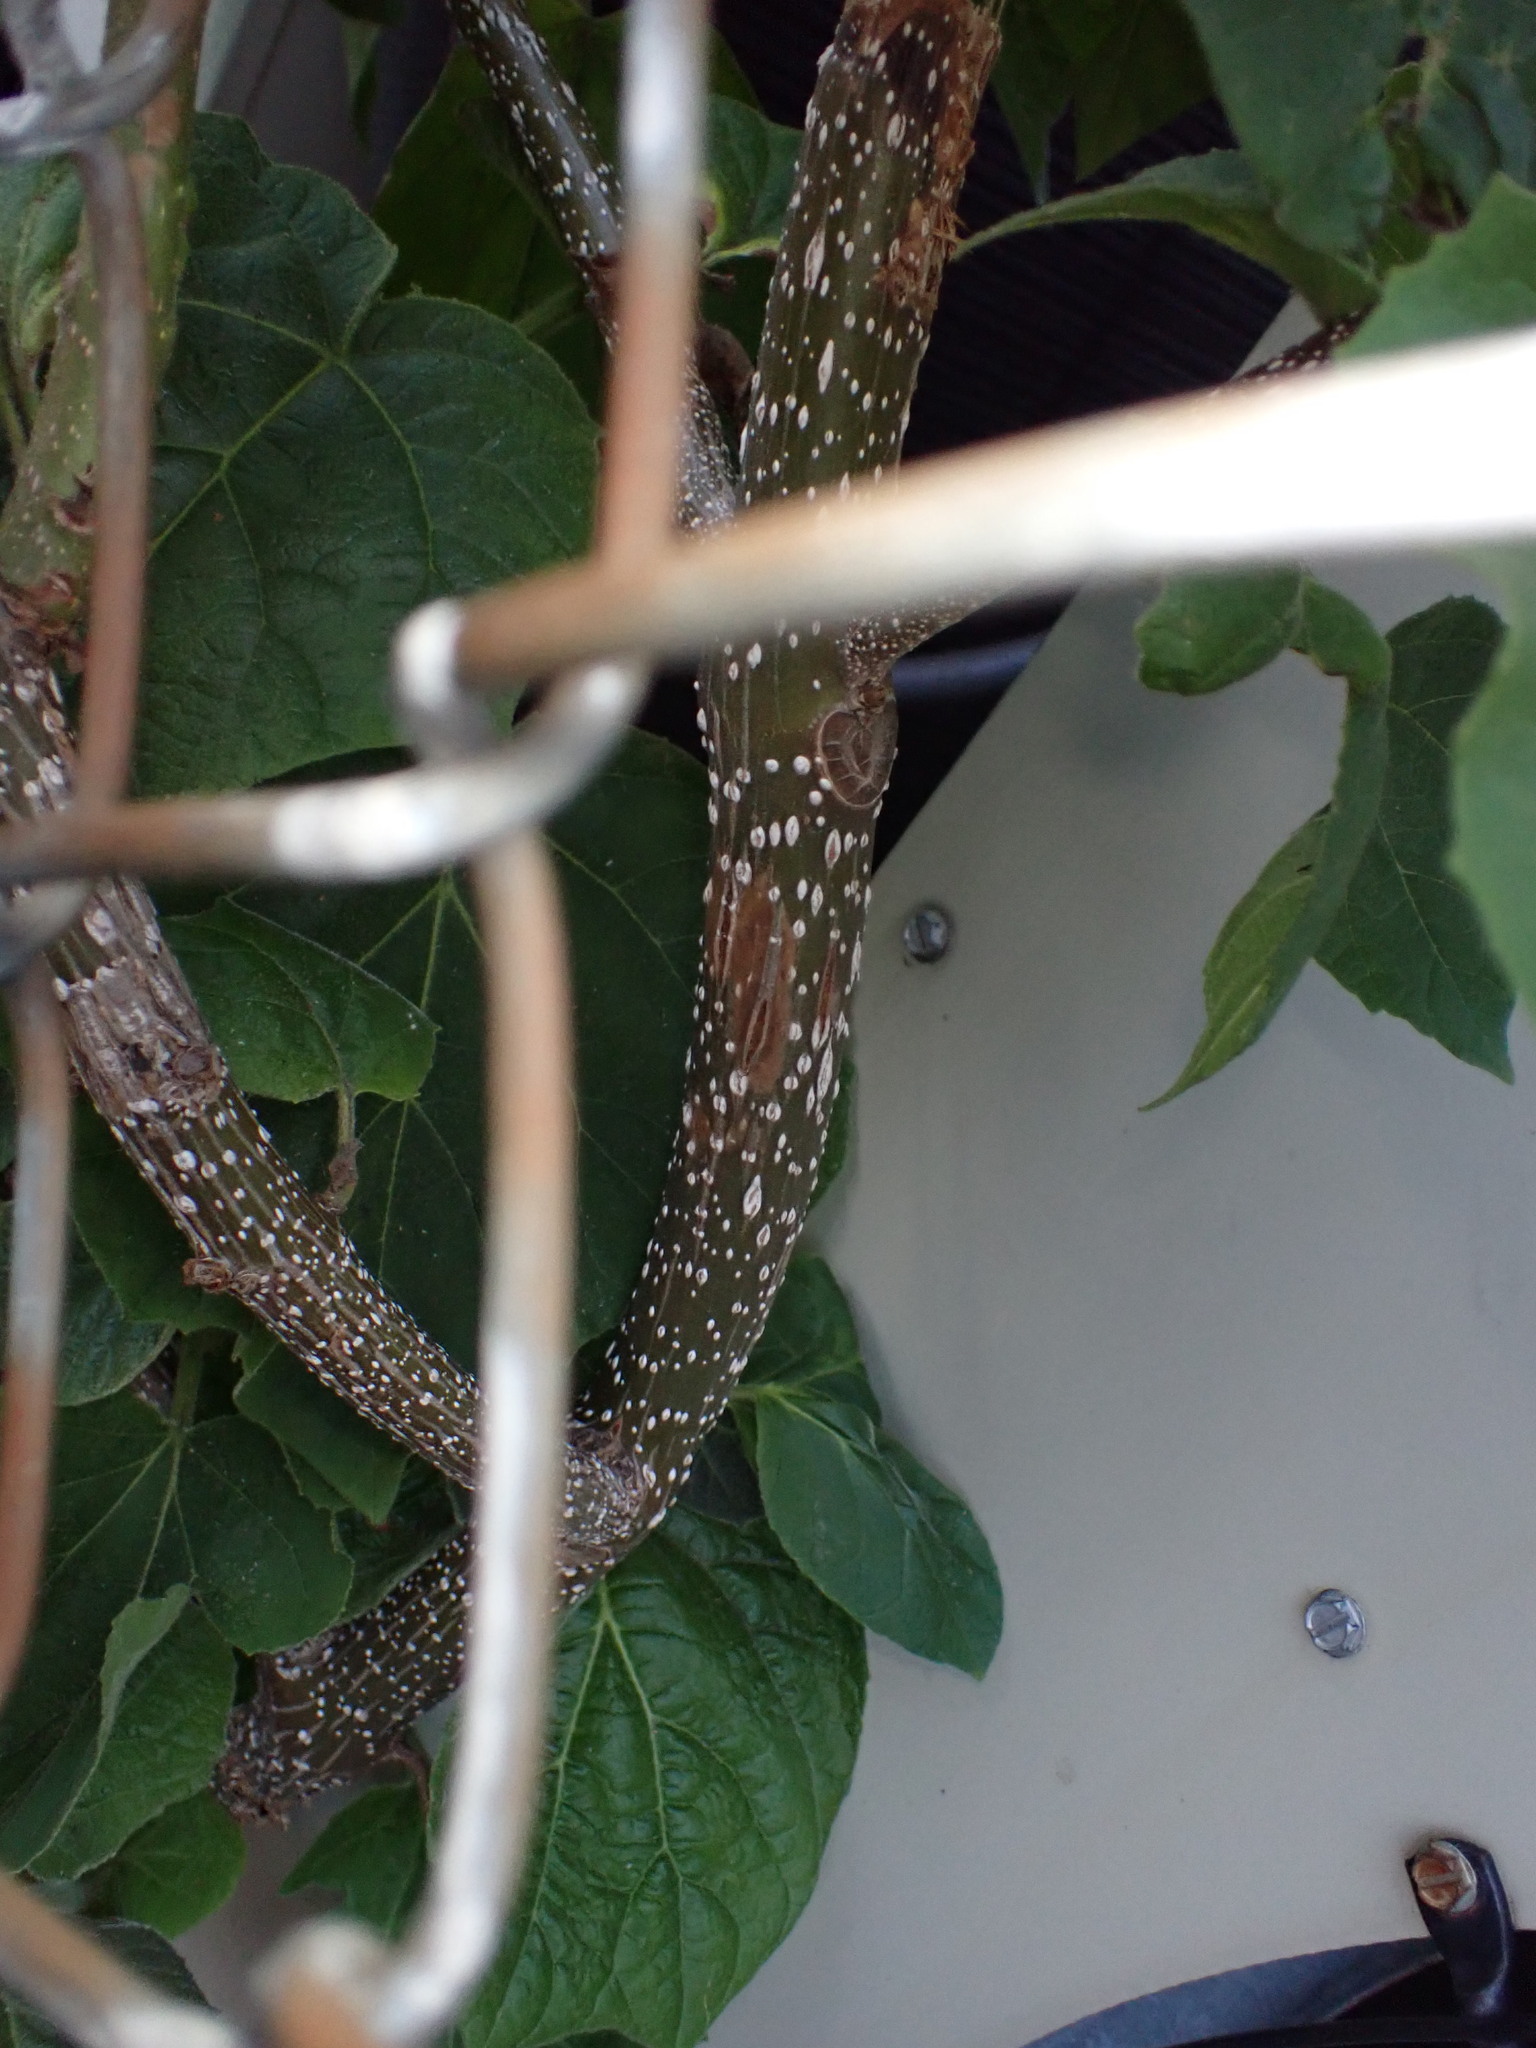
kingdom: Plantae
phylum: Tracheophyta
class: Magnoliopsida
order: Lamiales
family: Paulowniaceae
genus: Paulownia
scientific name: Paulownia tomentosa
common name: Foxglove-tree
